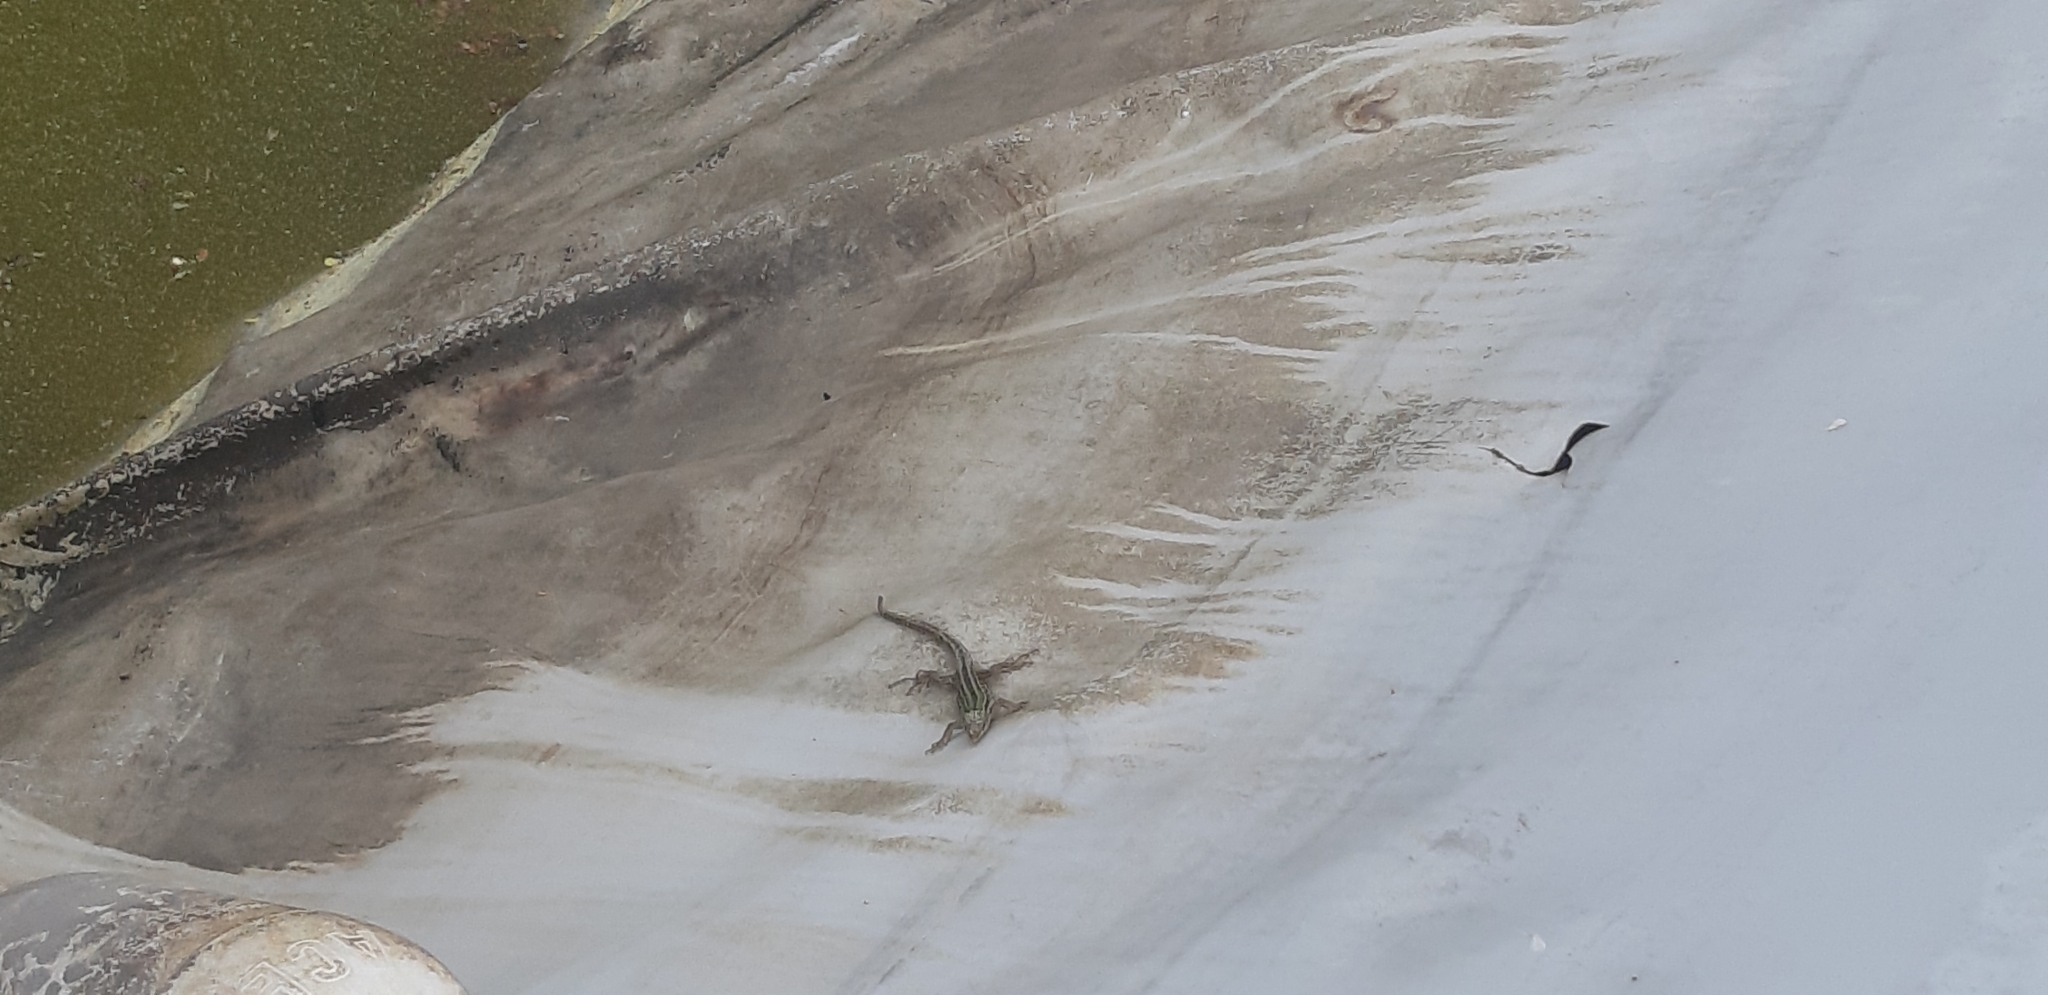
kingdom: Animalia
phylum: Chordata
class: Squamata
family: Lacertidae
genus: Podarcis
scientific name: Podarcis siculus
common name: Italian wall lizard
